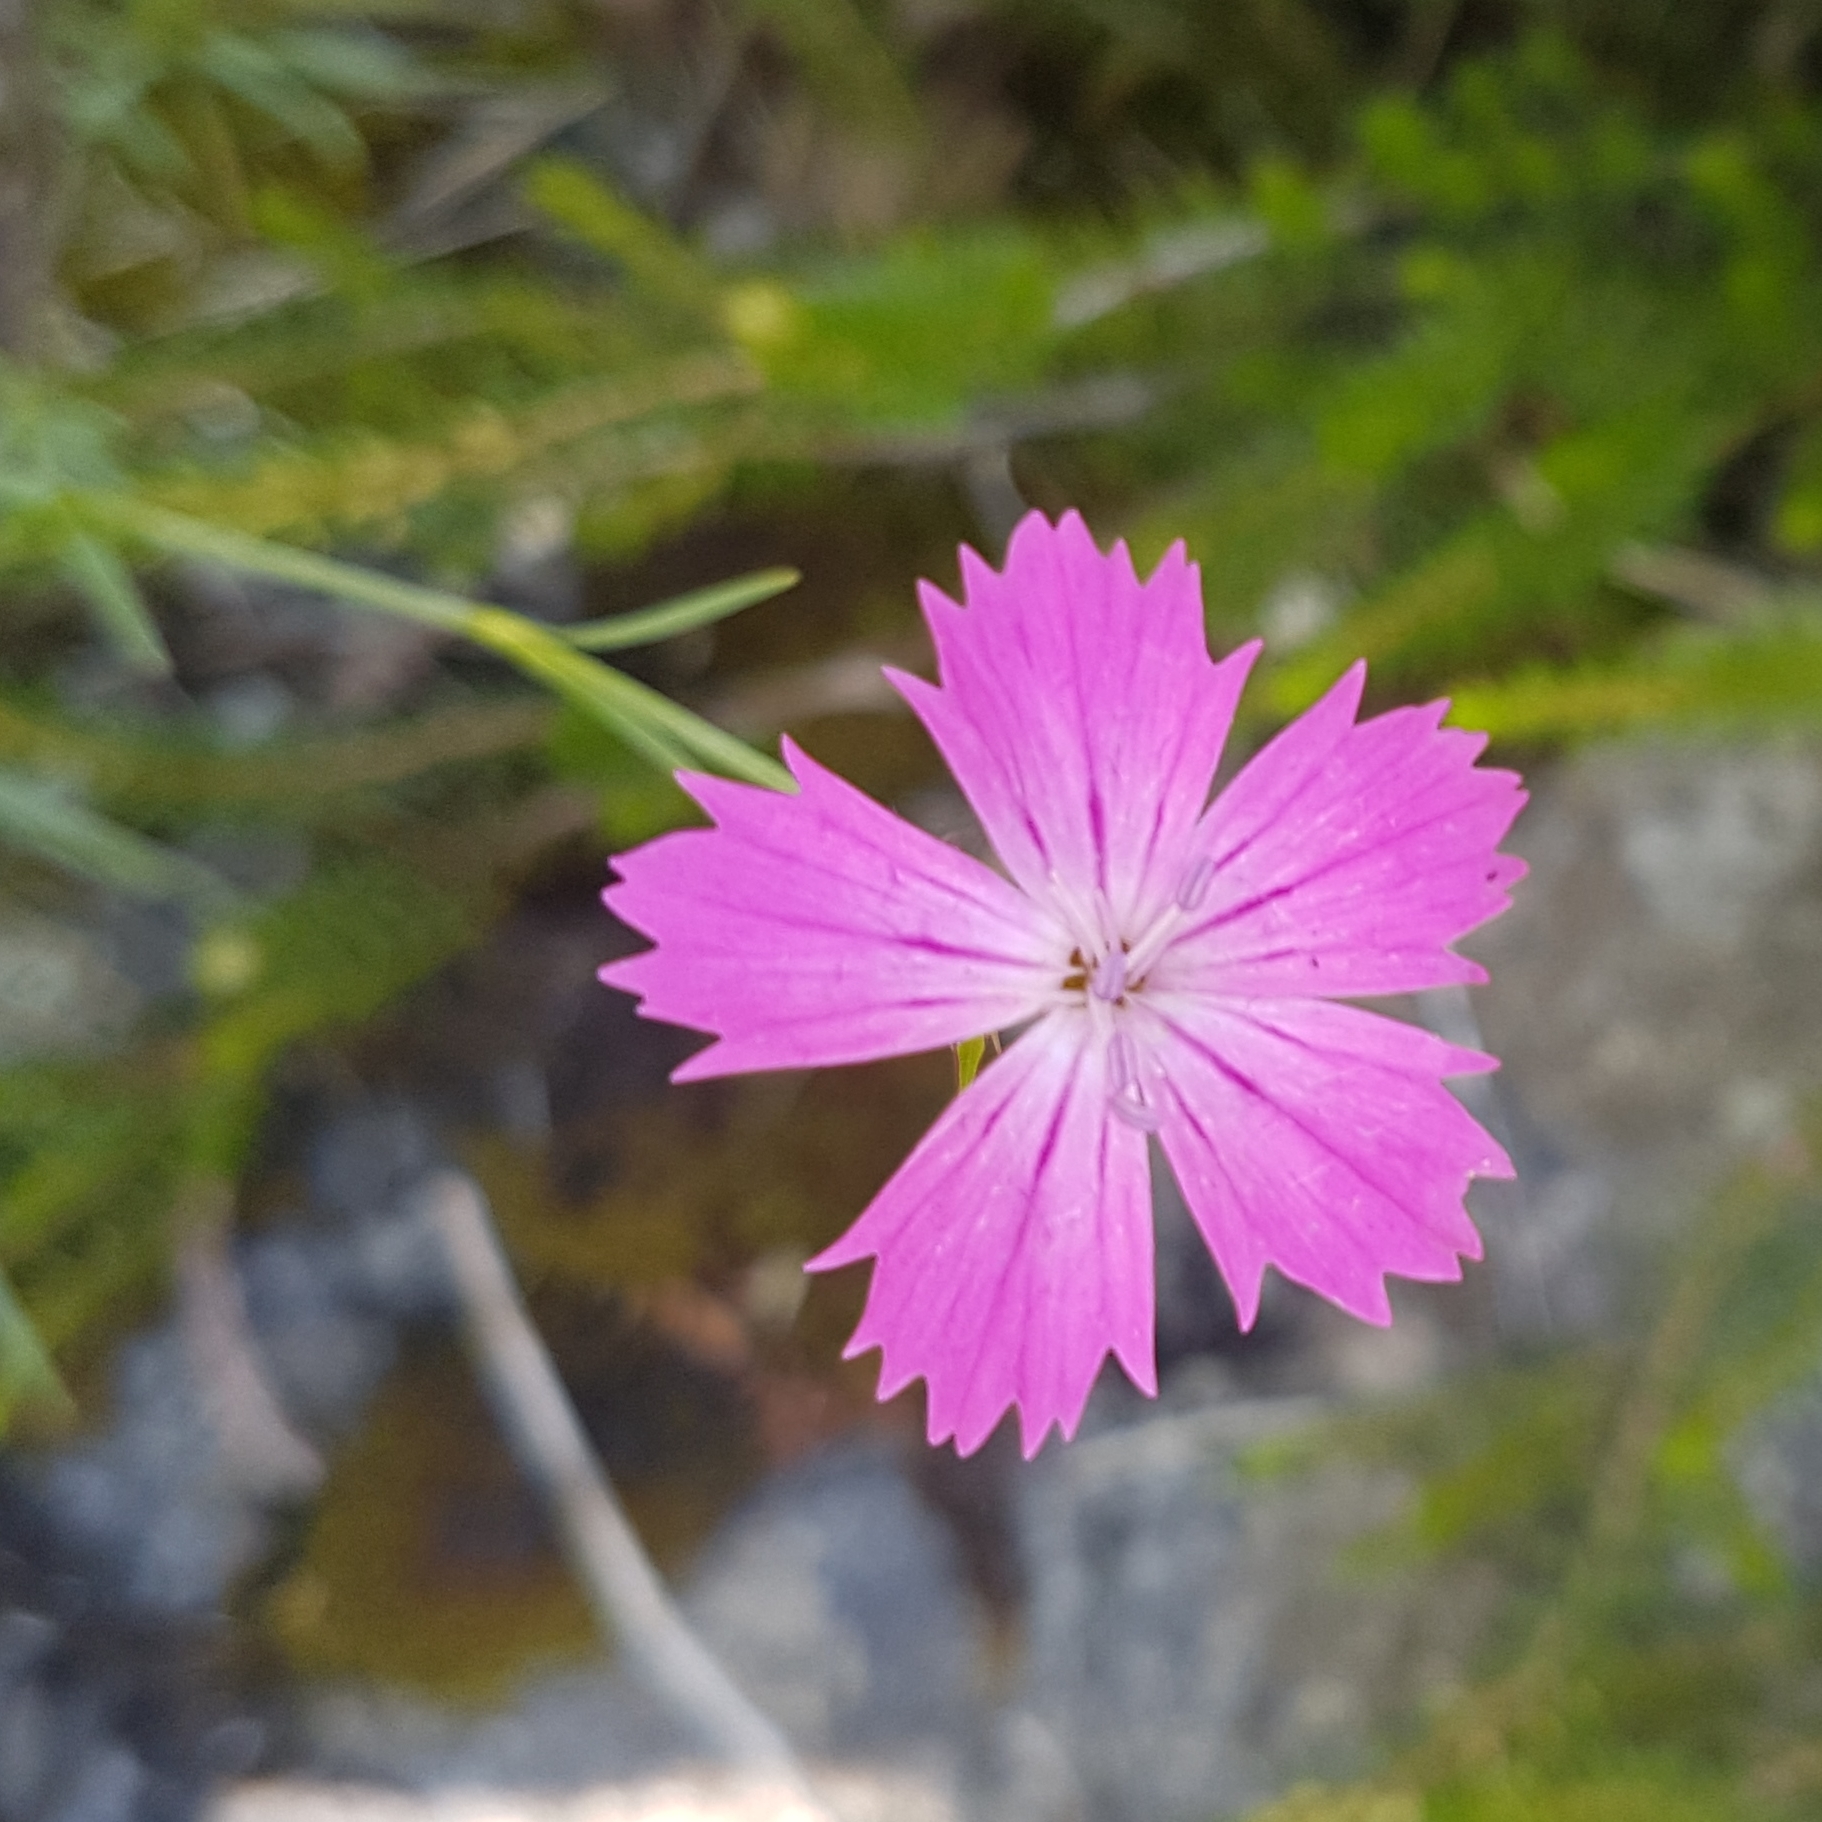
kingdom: Plantae
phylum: Tracheophyta
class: Magnoliopsida
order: Caryophyllales
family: Caryophyllaceae
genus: Dianthus
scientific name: Dianthus carthusianorum
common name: Carthusian pink
